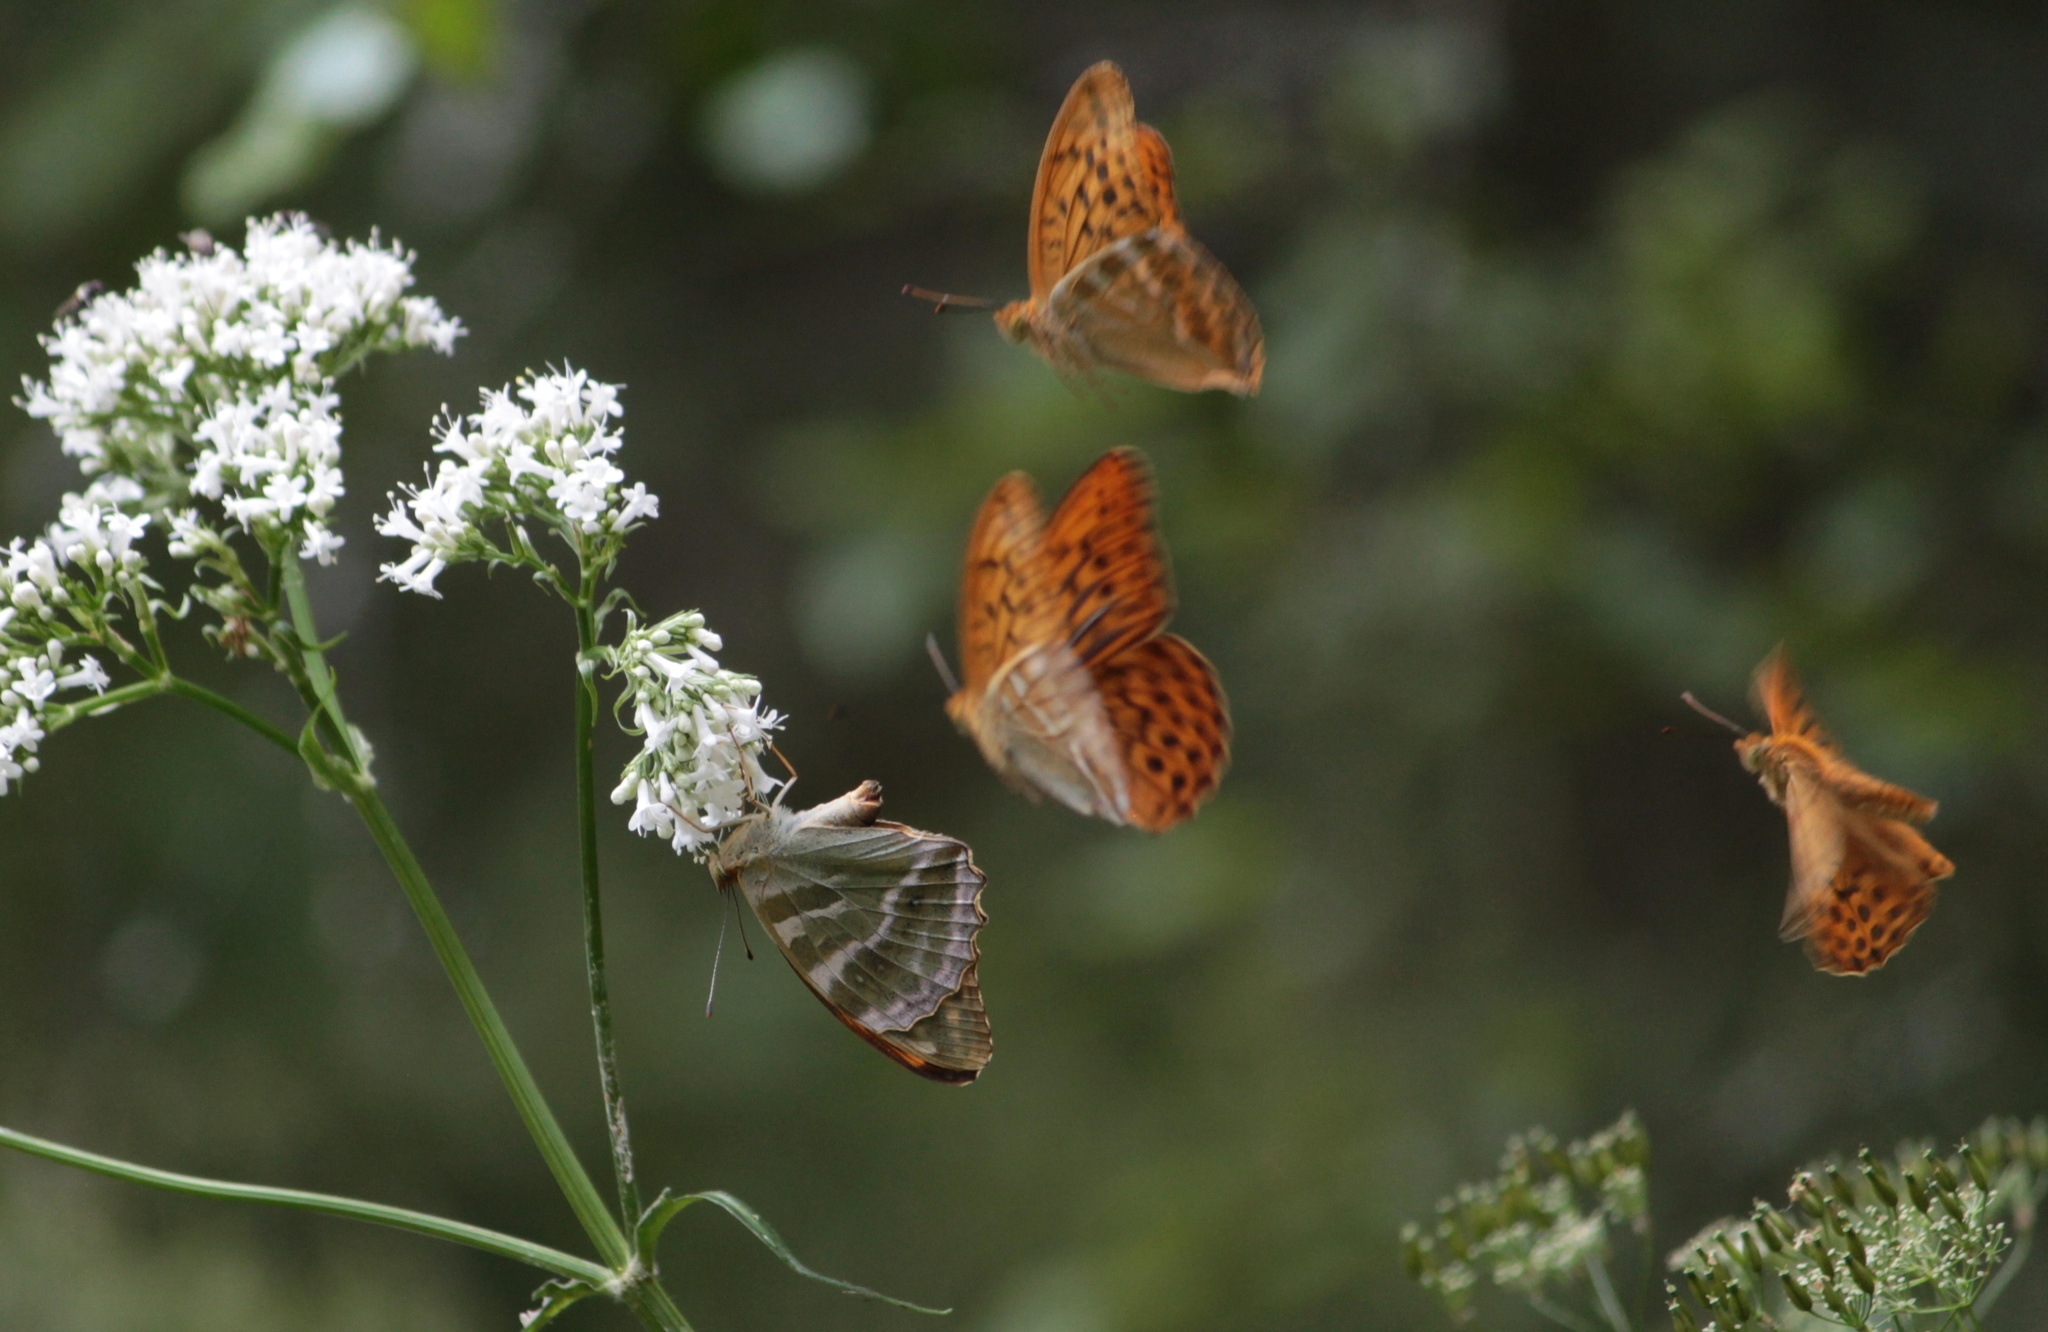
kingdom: Animalia
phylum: Arthropoda
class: Insecta
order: Lepidoptera
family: Nymphalidae
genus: Argynnis
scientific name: Argynnis paphia
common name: Silver-washed fritillary
